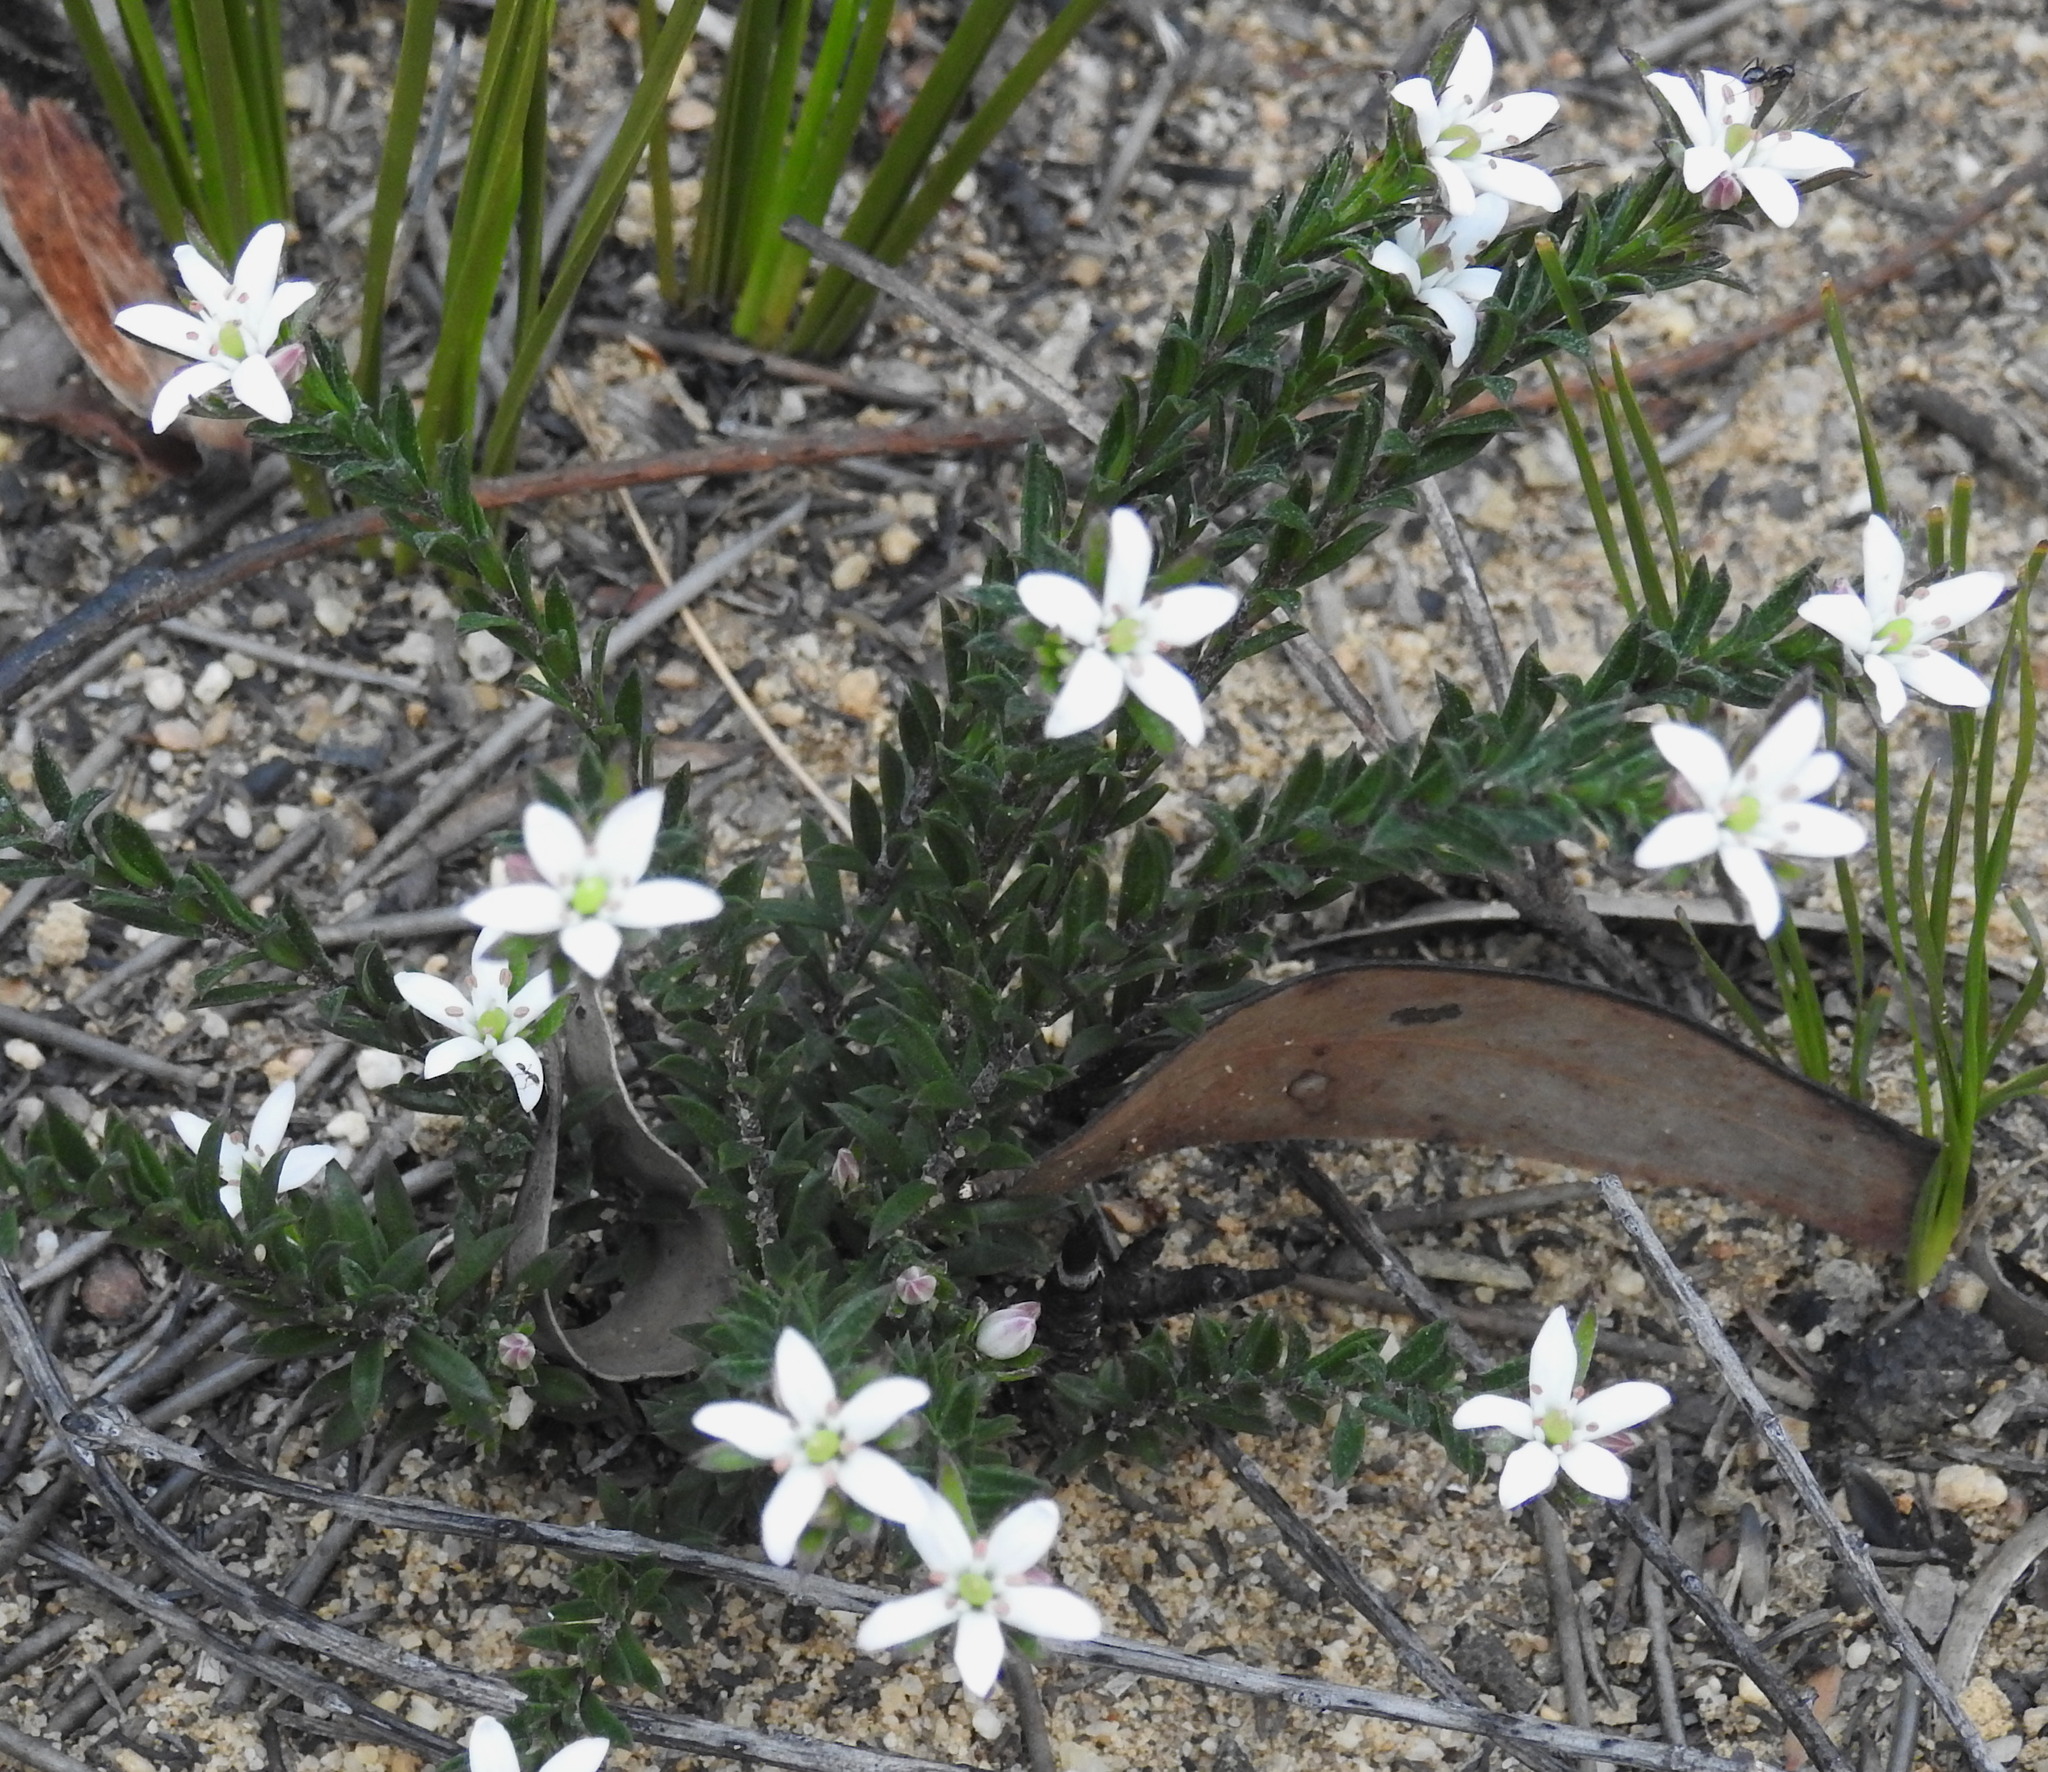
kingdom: Plantae
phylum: Tracheophyta
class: Magnoliopsida
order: Apiales
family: Pittosporaceae
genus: Rhytidosporum
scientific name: Rhytidosporum procumbens
